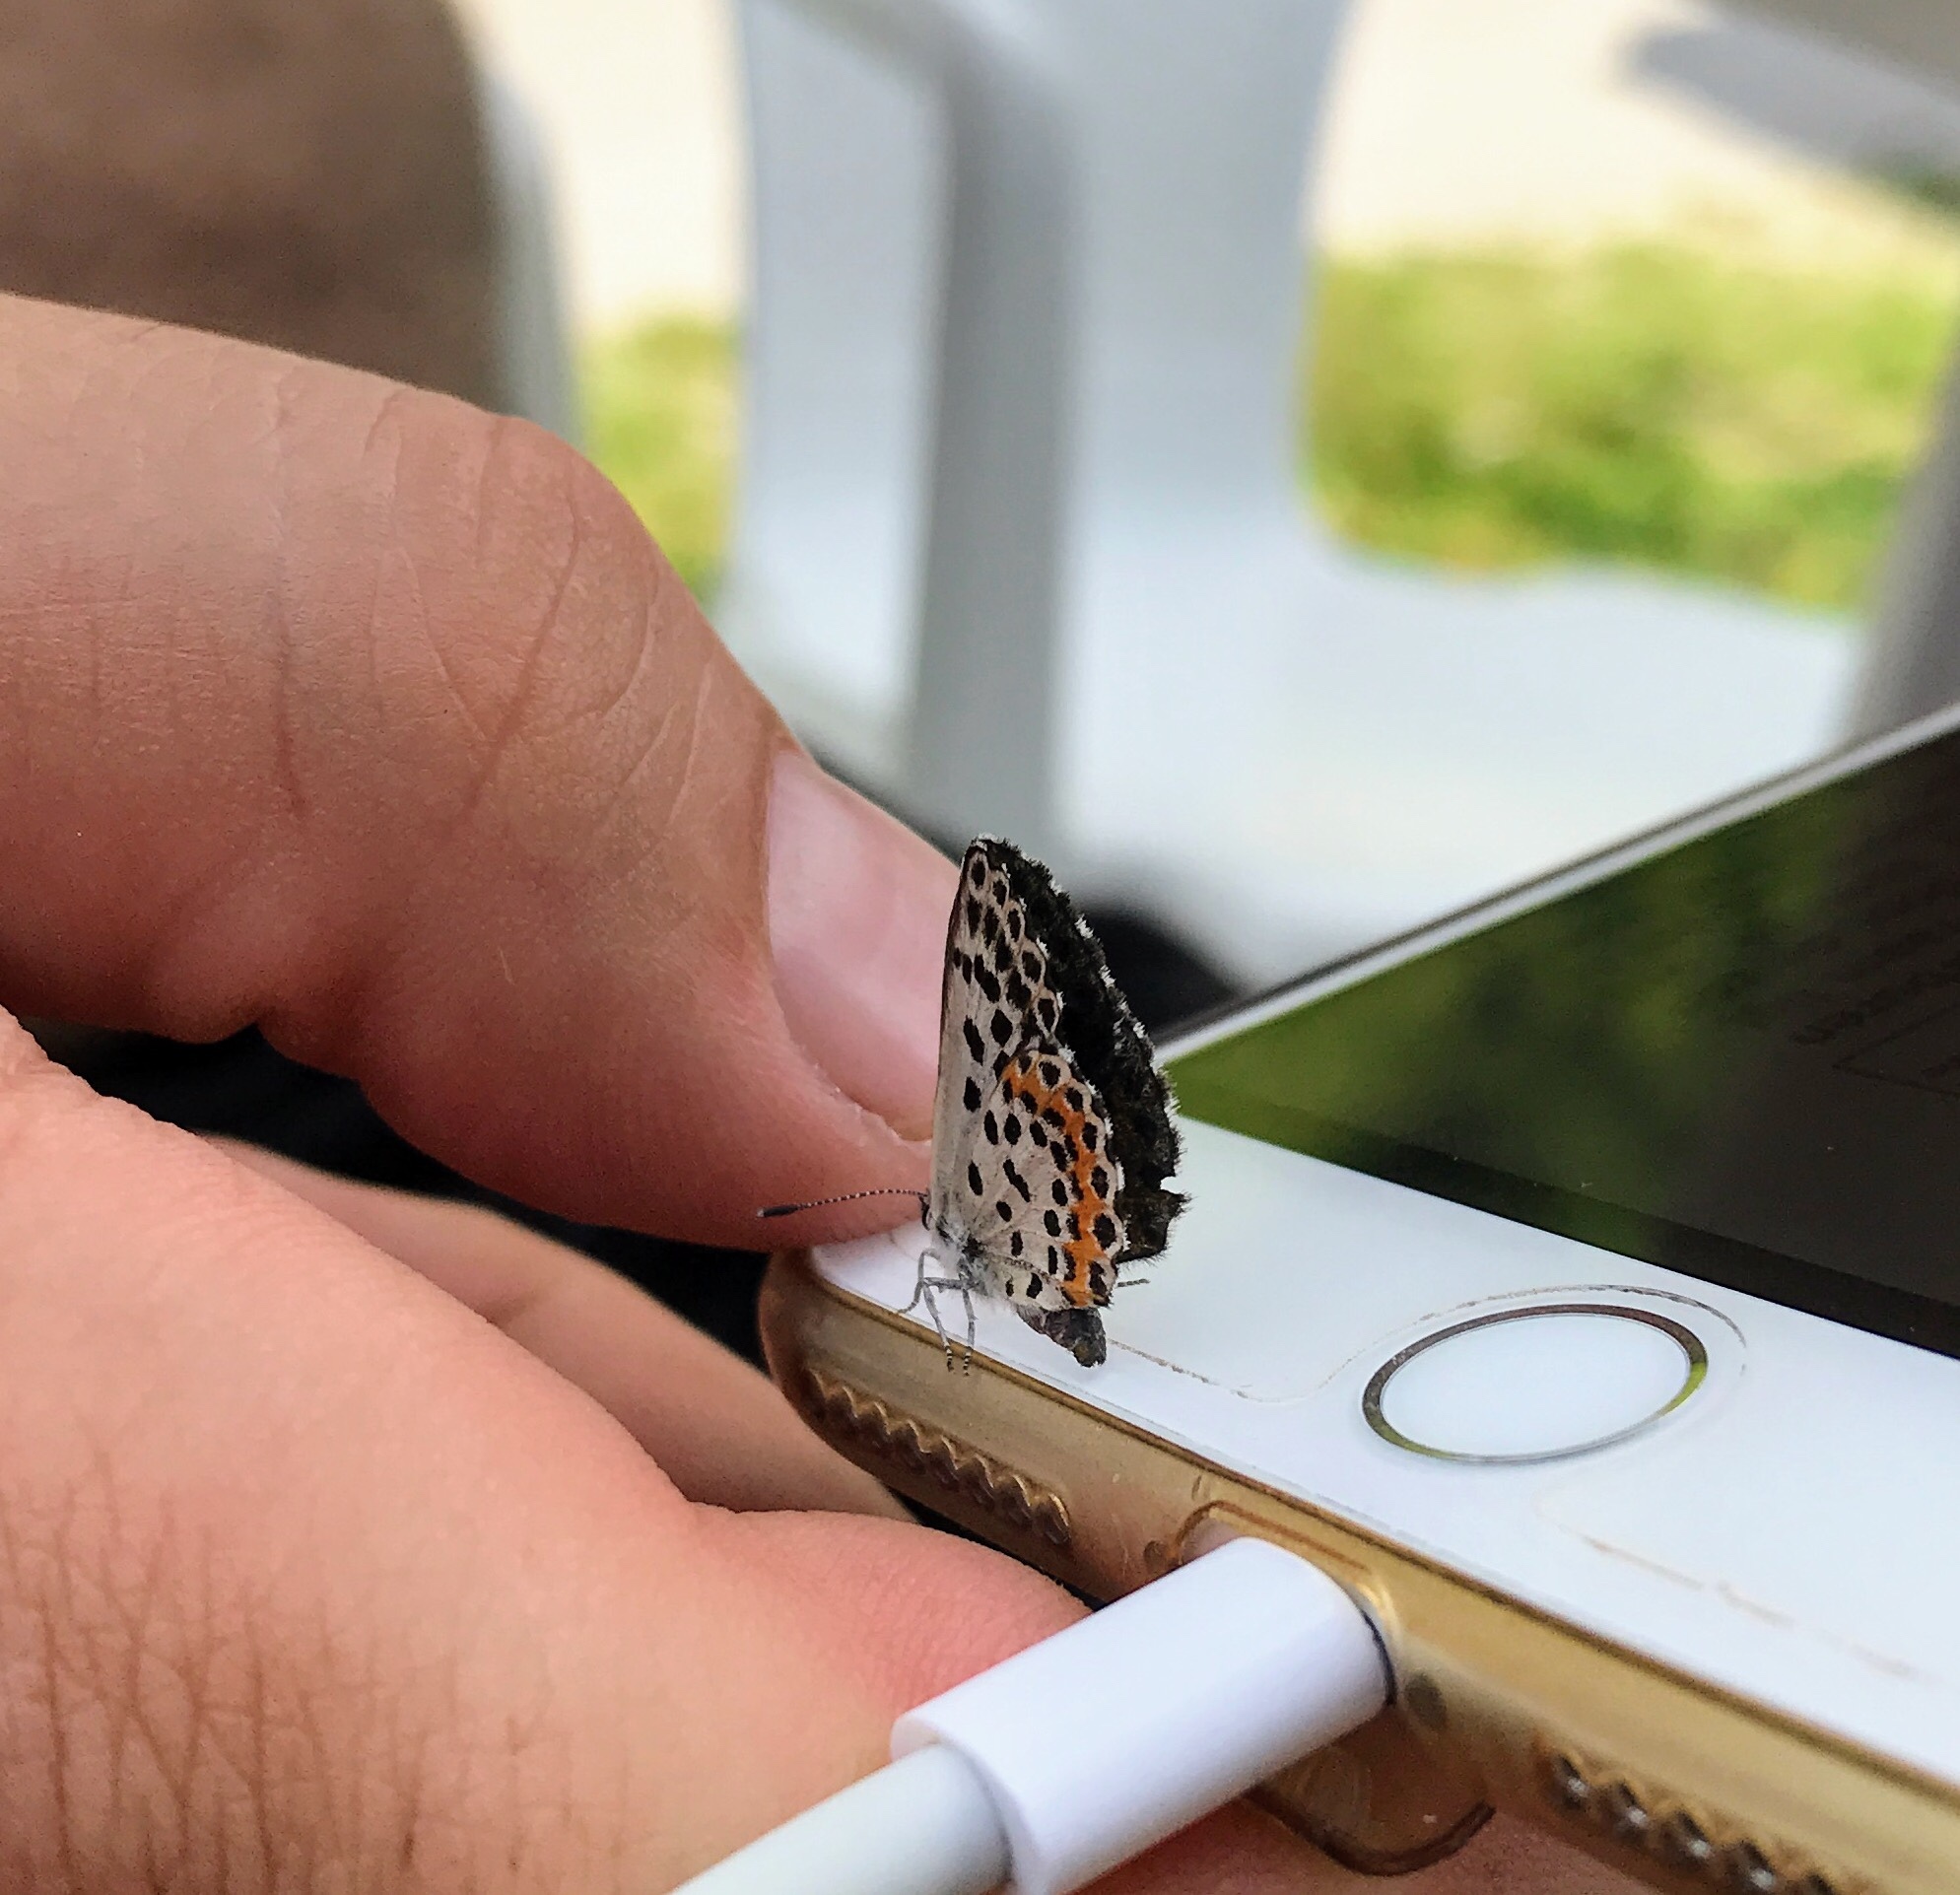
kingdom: Animalia
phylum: Arthropoda
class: Insecta
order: Lepidoptera
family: Lycaenidae
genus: Scolitantides
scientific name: Scolitantides orion
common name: Chequered blue
